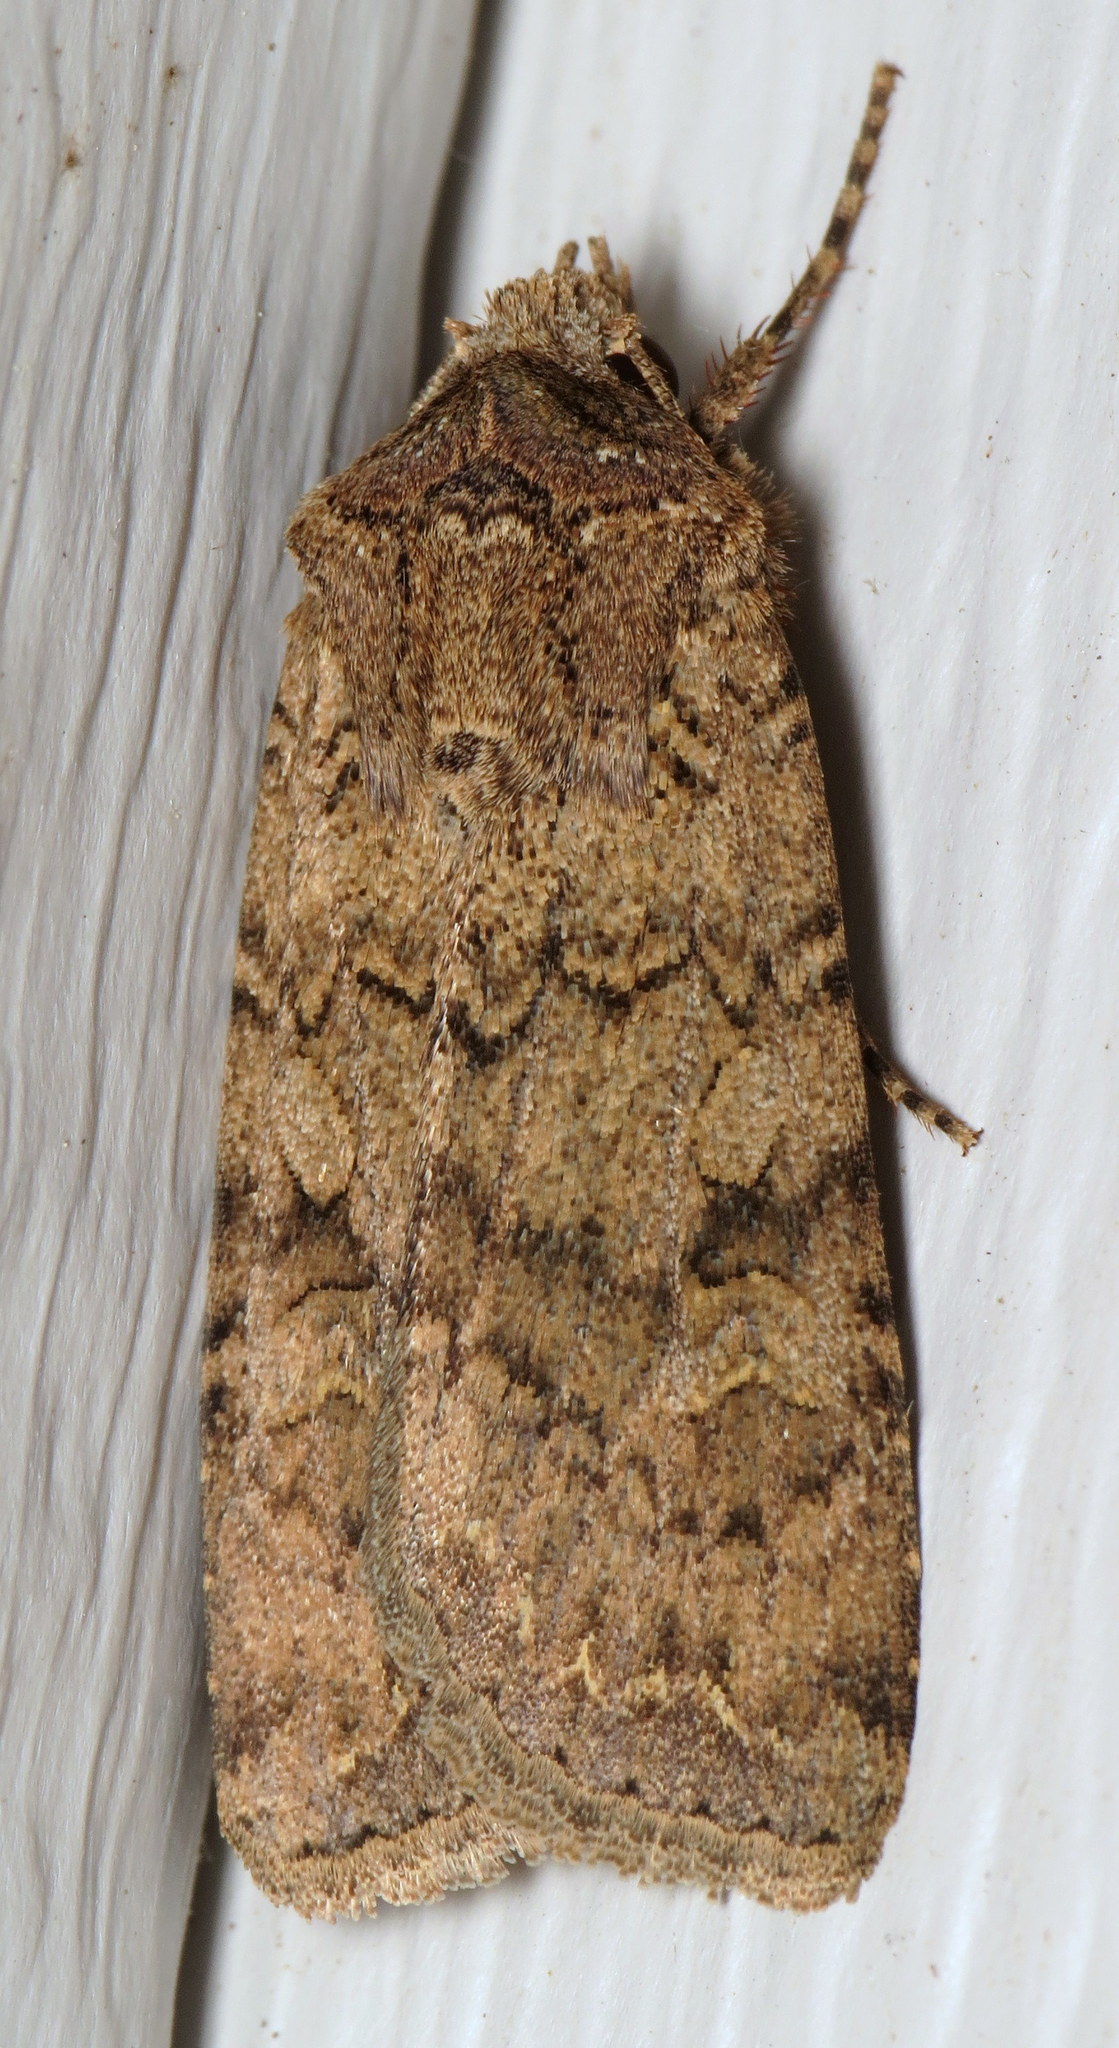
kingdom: Animalia
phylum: Arthropoda
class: Insecta
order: Lepidoptera
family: Noctuidae
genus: Euxoa
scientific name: Euxoa messoria
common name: Darksided cutworm
